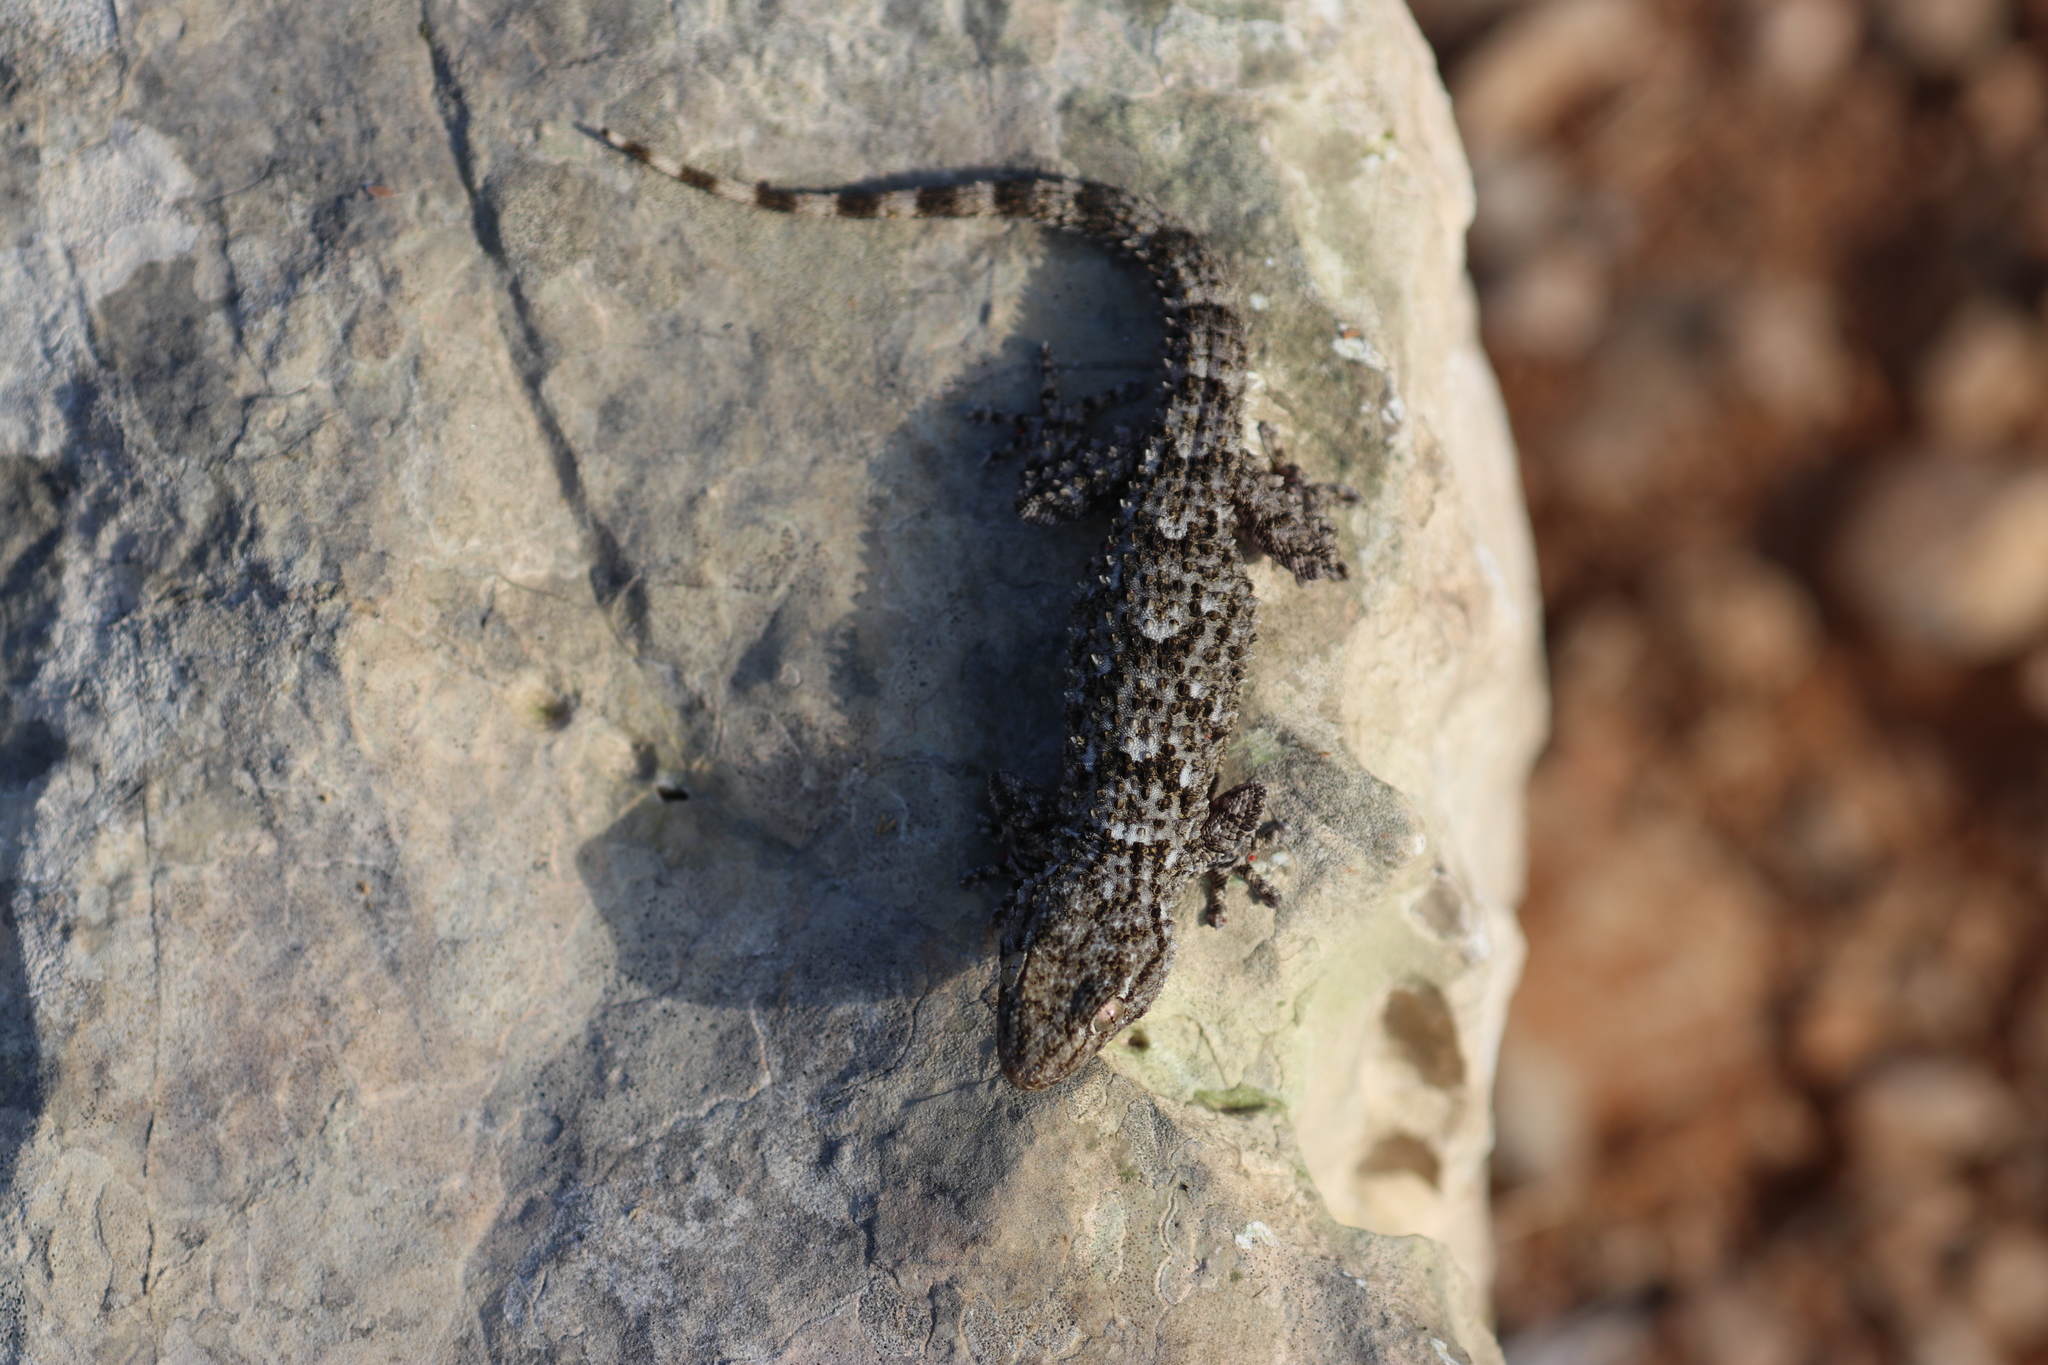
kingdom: Animalia
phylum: Chordata
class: Squamata
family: Phyllodactylidae
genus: Tarentola
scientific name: Tarentola mauritanica
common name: Moorish gecko
